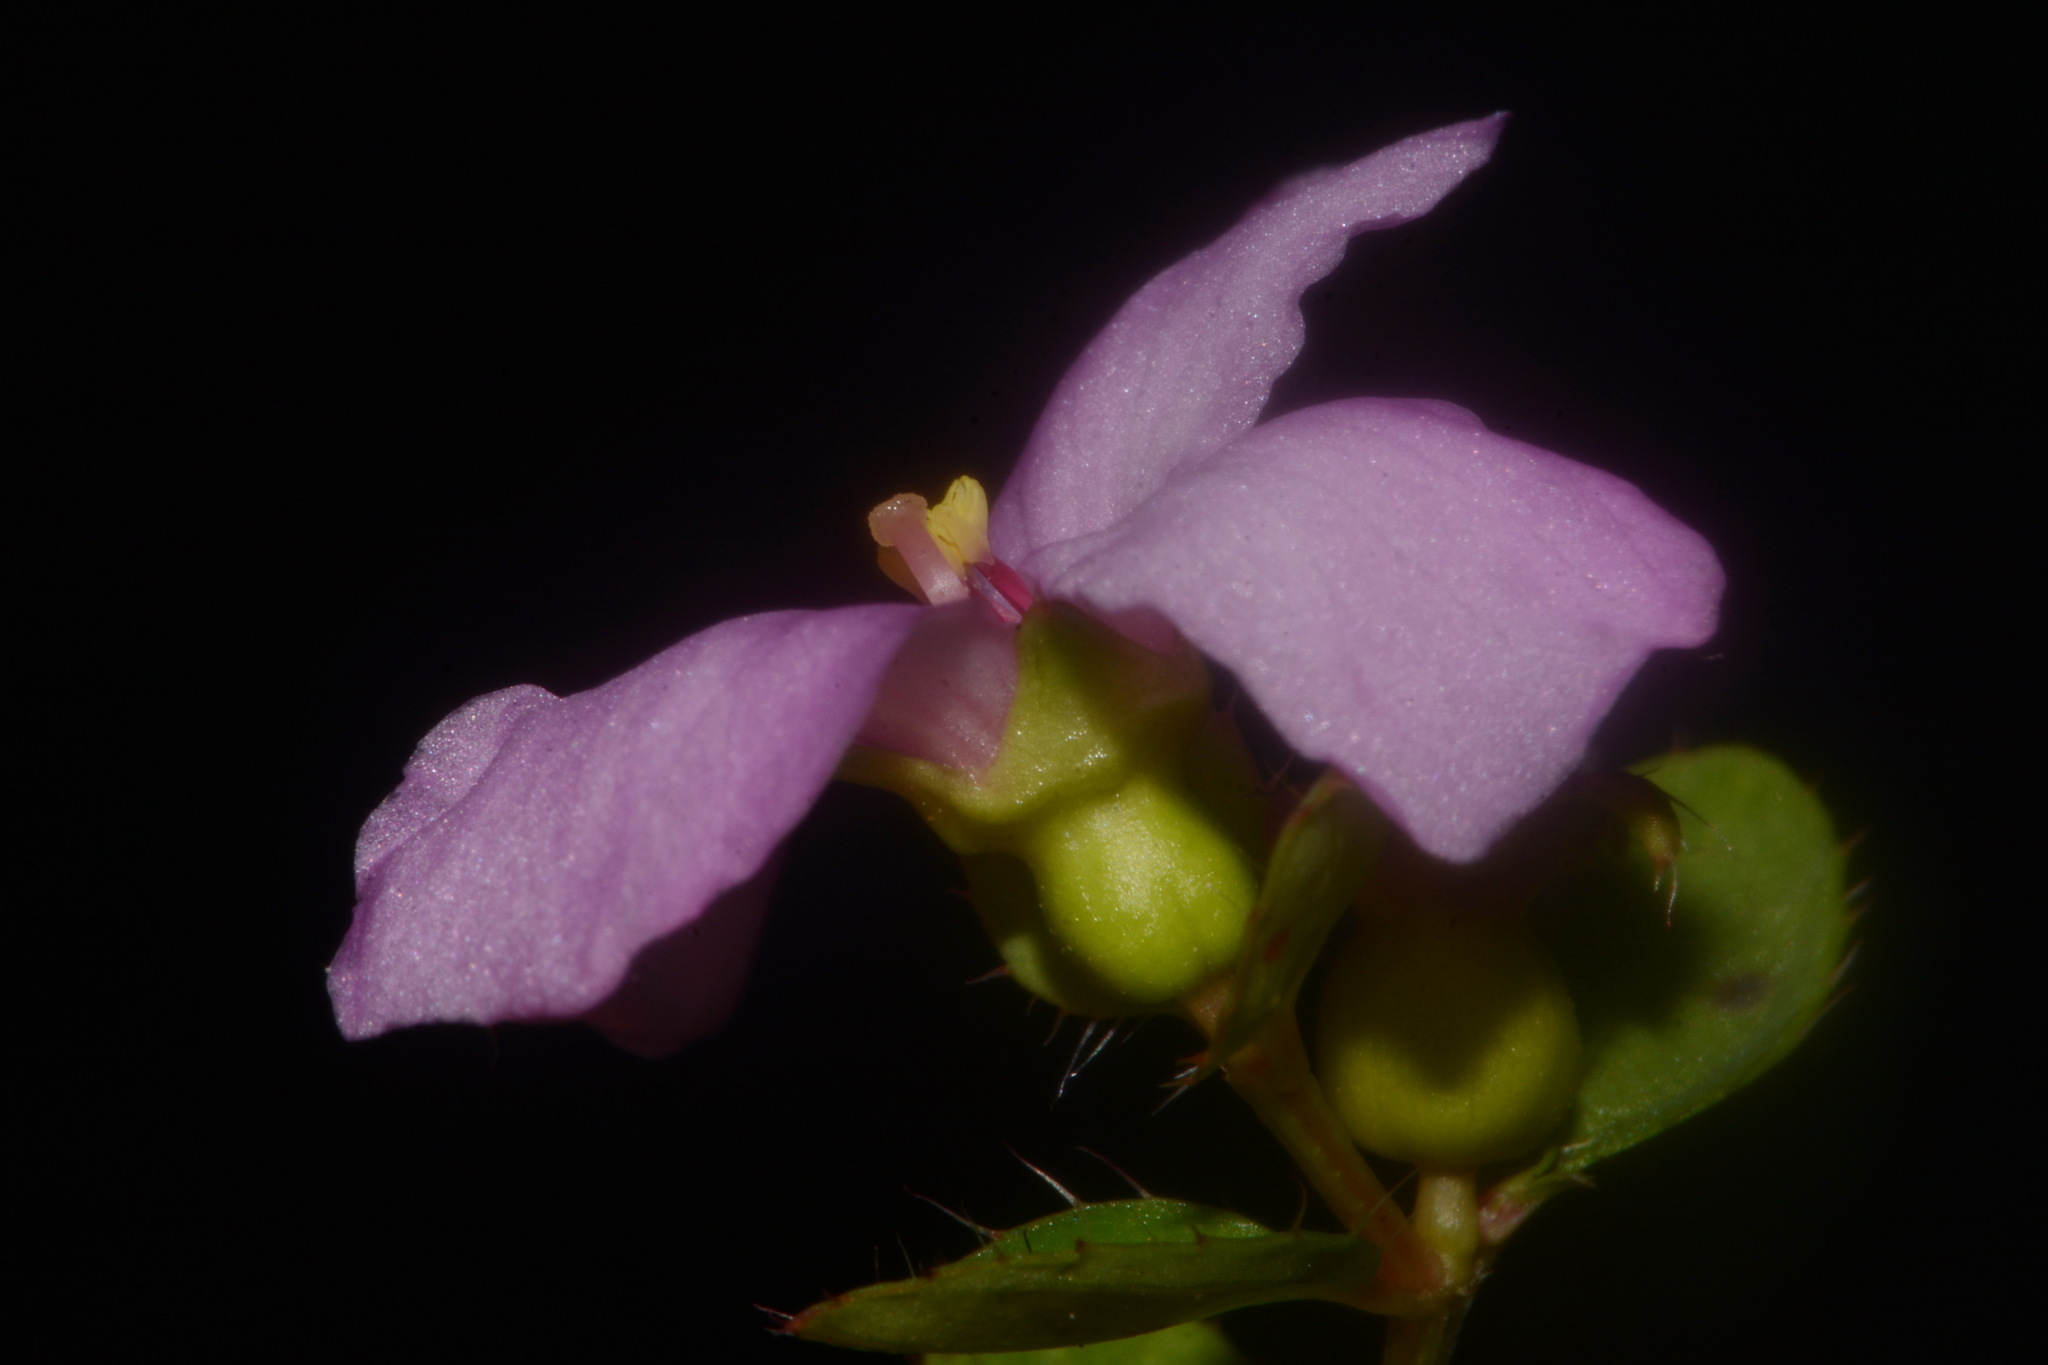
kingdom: Plantae
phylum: Tracheophyta
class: Magnoliopsida
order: Myrtales
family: Melastomataceae
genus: Rhexia
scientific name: Rhexia petiolata
